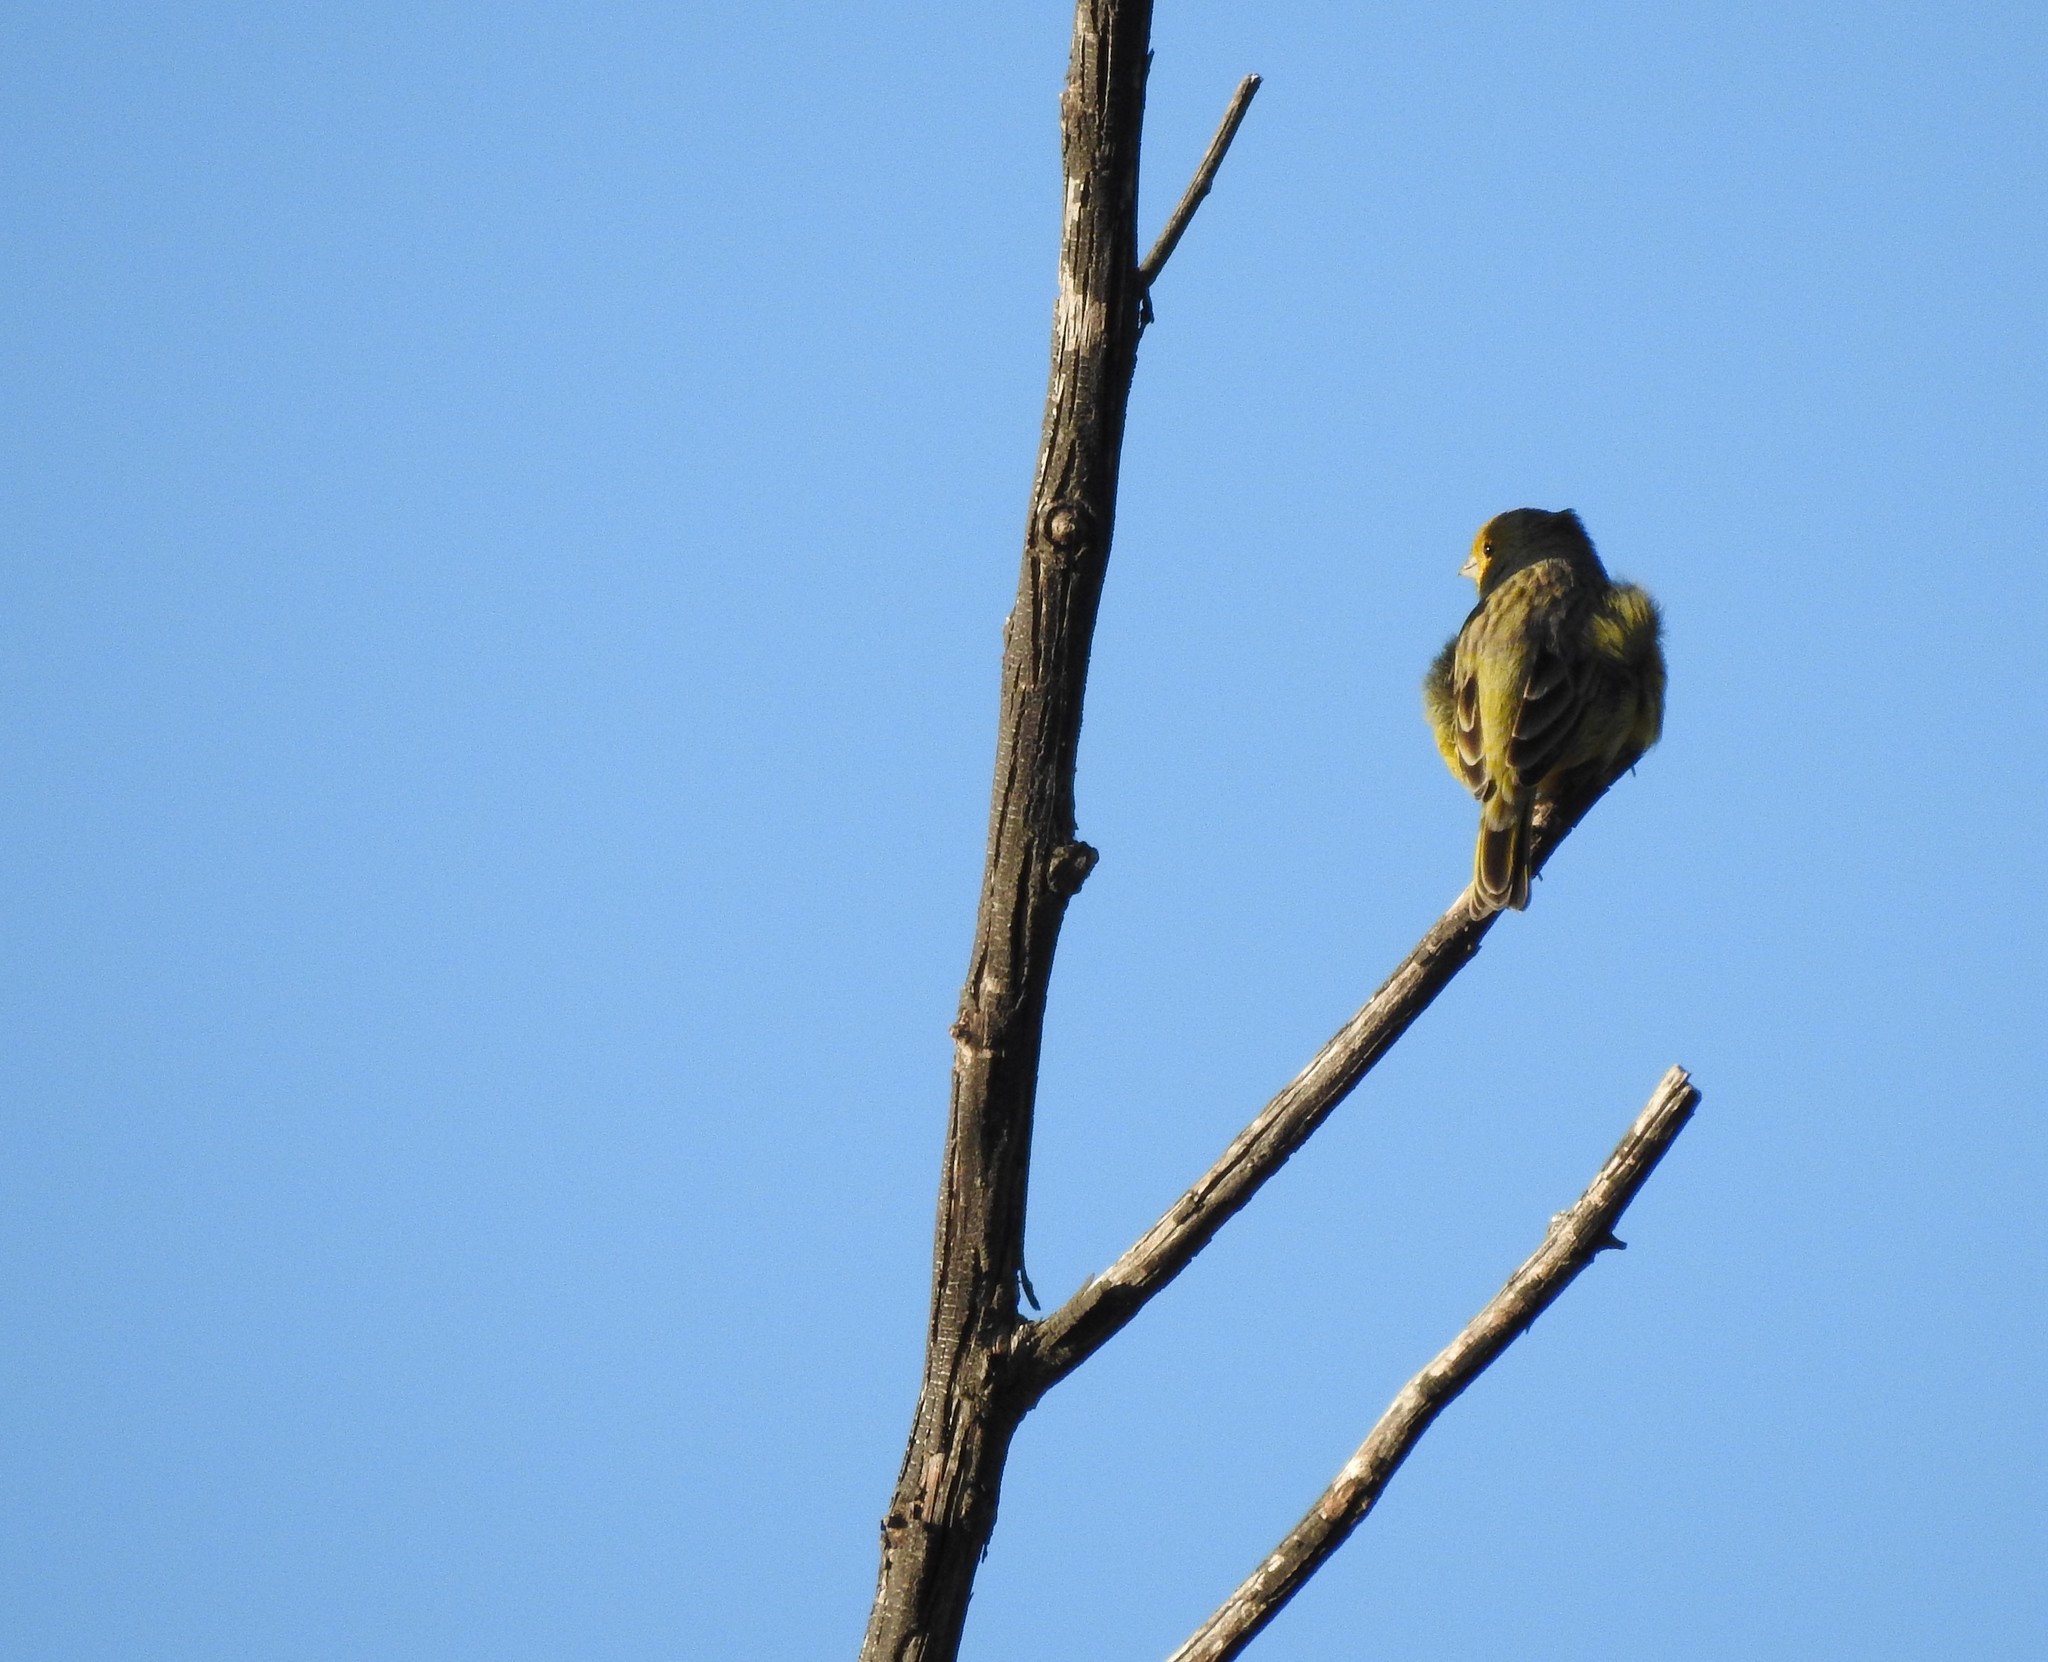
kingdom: Animalia
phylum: Chordata
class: Aves
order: Passeriformes
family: Fringillidae
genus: Spinus
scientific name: Spinus magellanicus
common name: Hooded siskin
